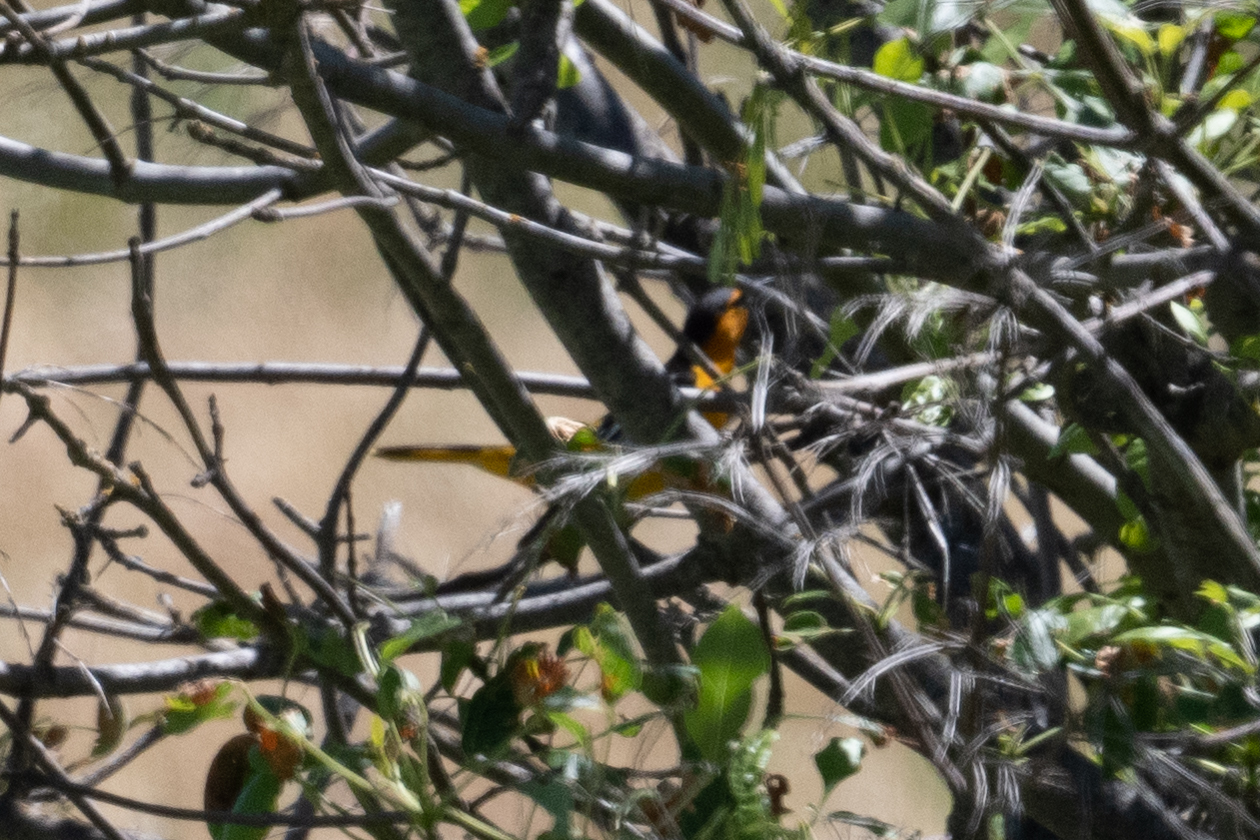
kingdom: Animalia
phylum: Chordata
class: Aves
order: Passeriformes
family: Icteridae
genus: Icterus
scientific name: Icterus bullockii
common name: Bullock's oriole
